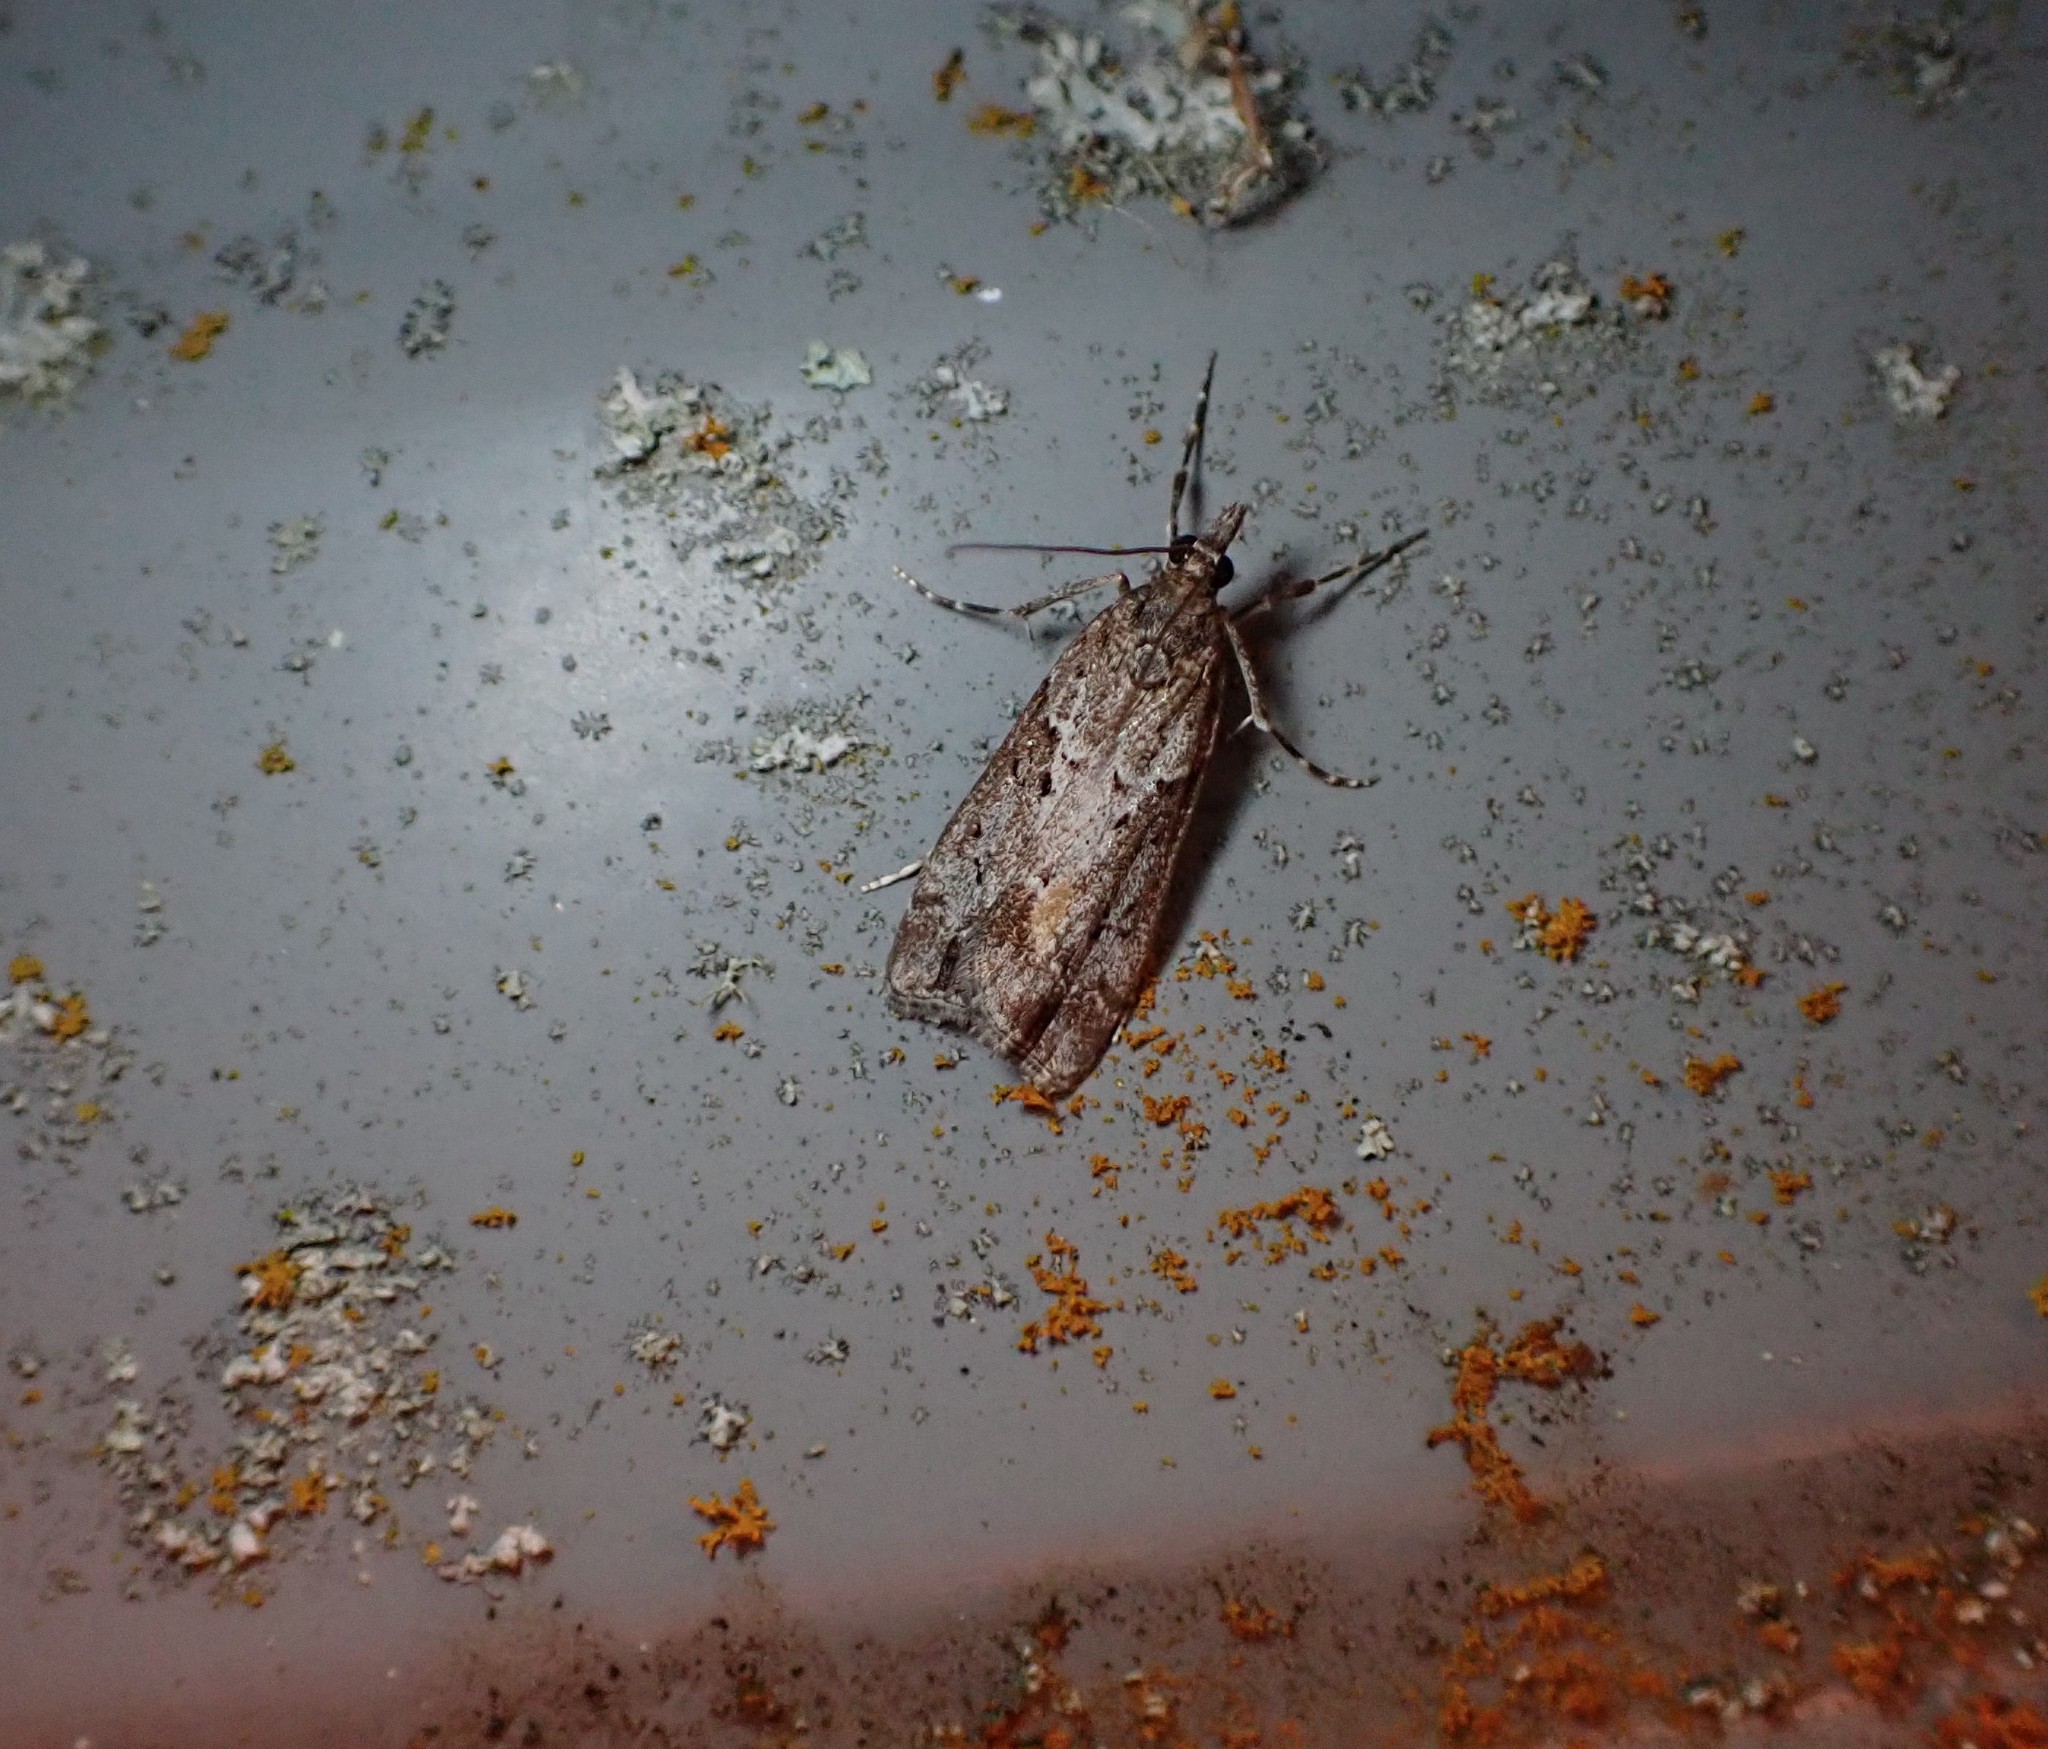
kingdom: Animalia
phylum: Arthropoda
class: Insecta
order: Lepidoptera
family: Crambidae
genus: Eudonia
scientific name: Eudonia submarginalis
